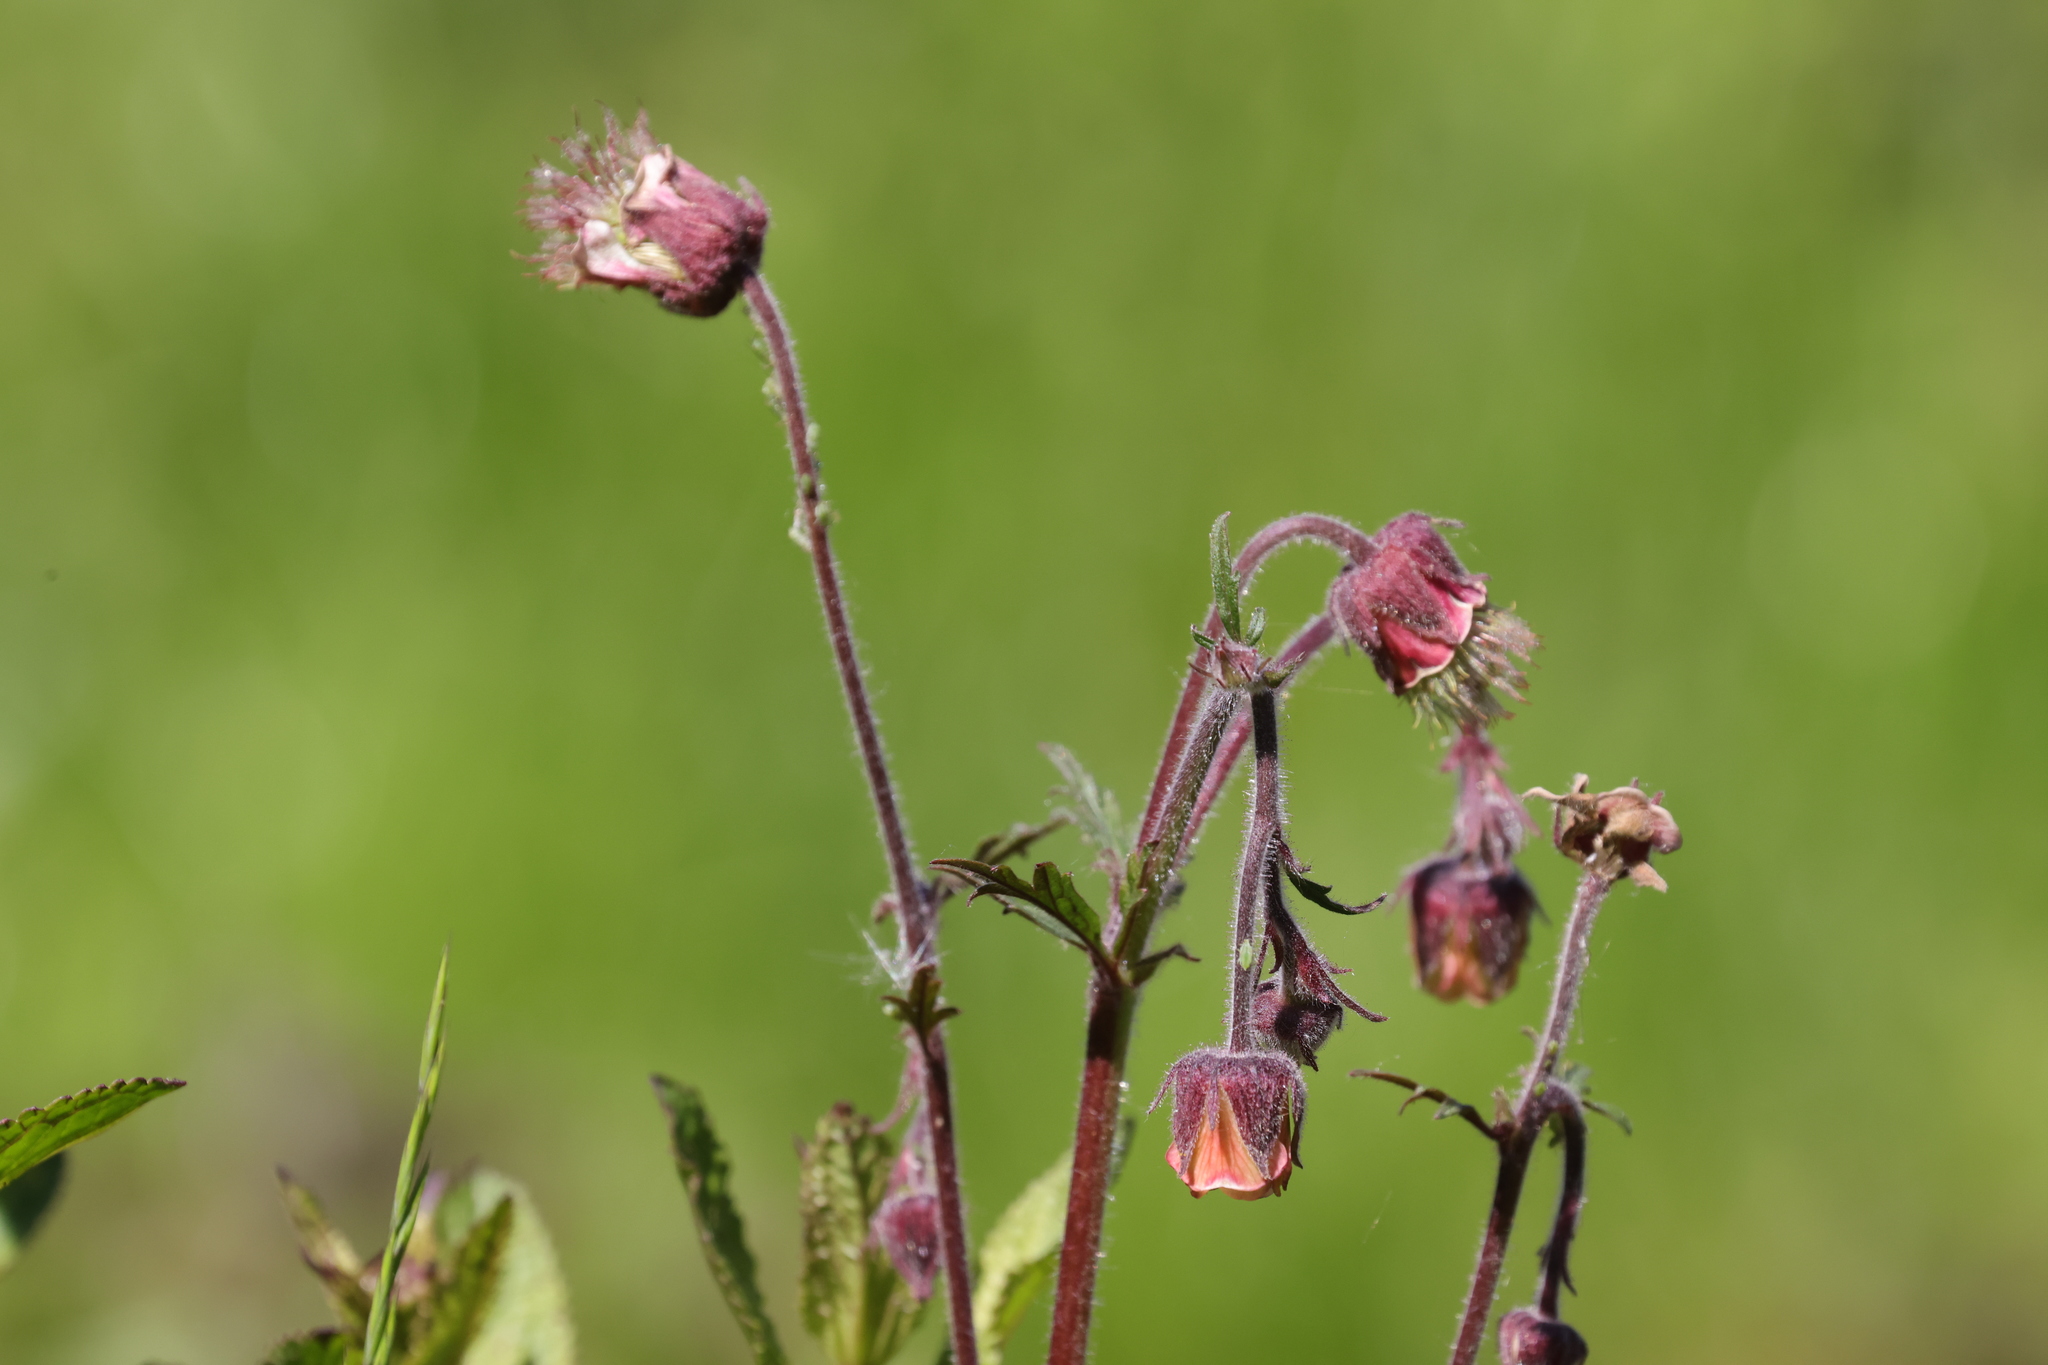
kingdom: Plantae
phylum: Tracheophyta
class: Magnoliopsida
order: Rosales
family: Rosaceae
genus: Geum
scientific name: Geum rivale
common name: Water avens
